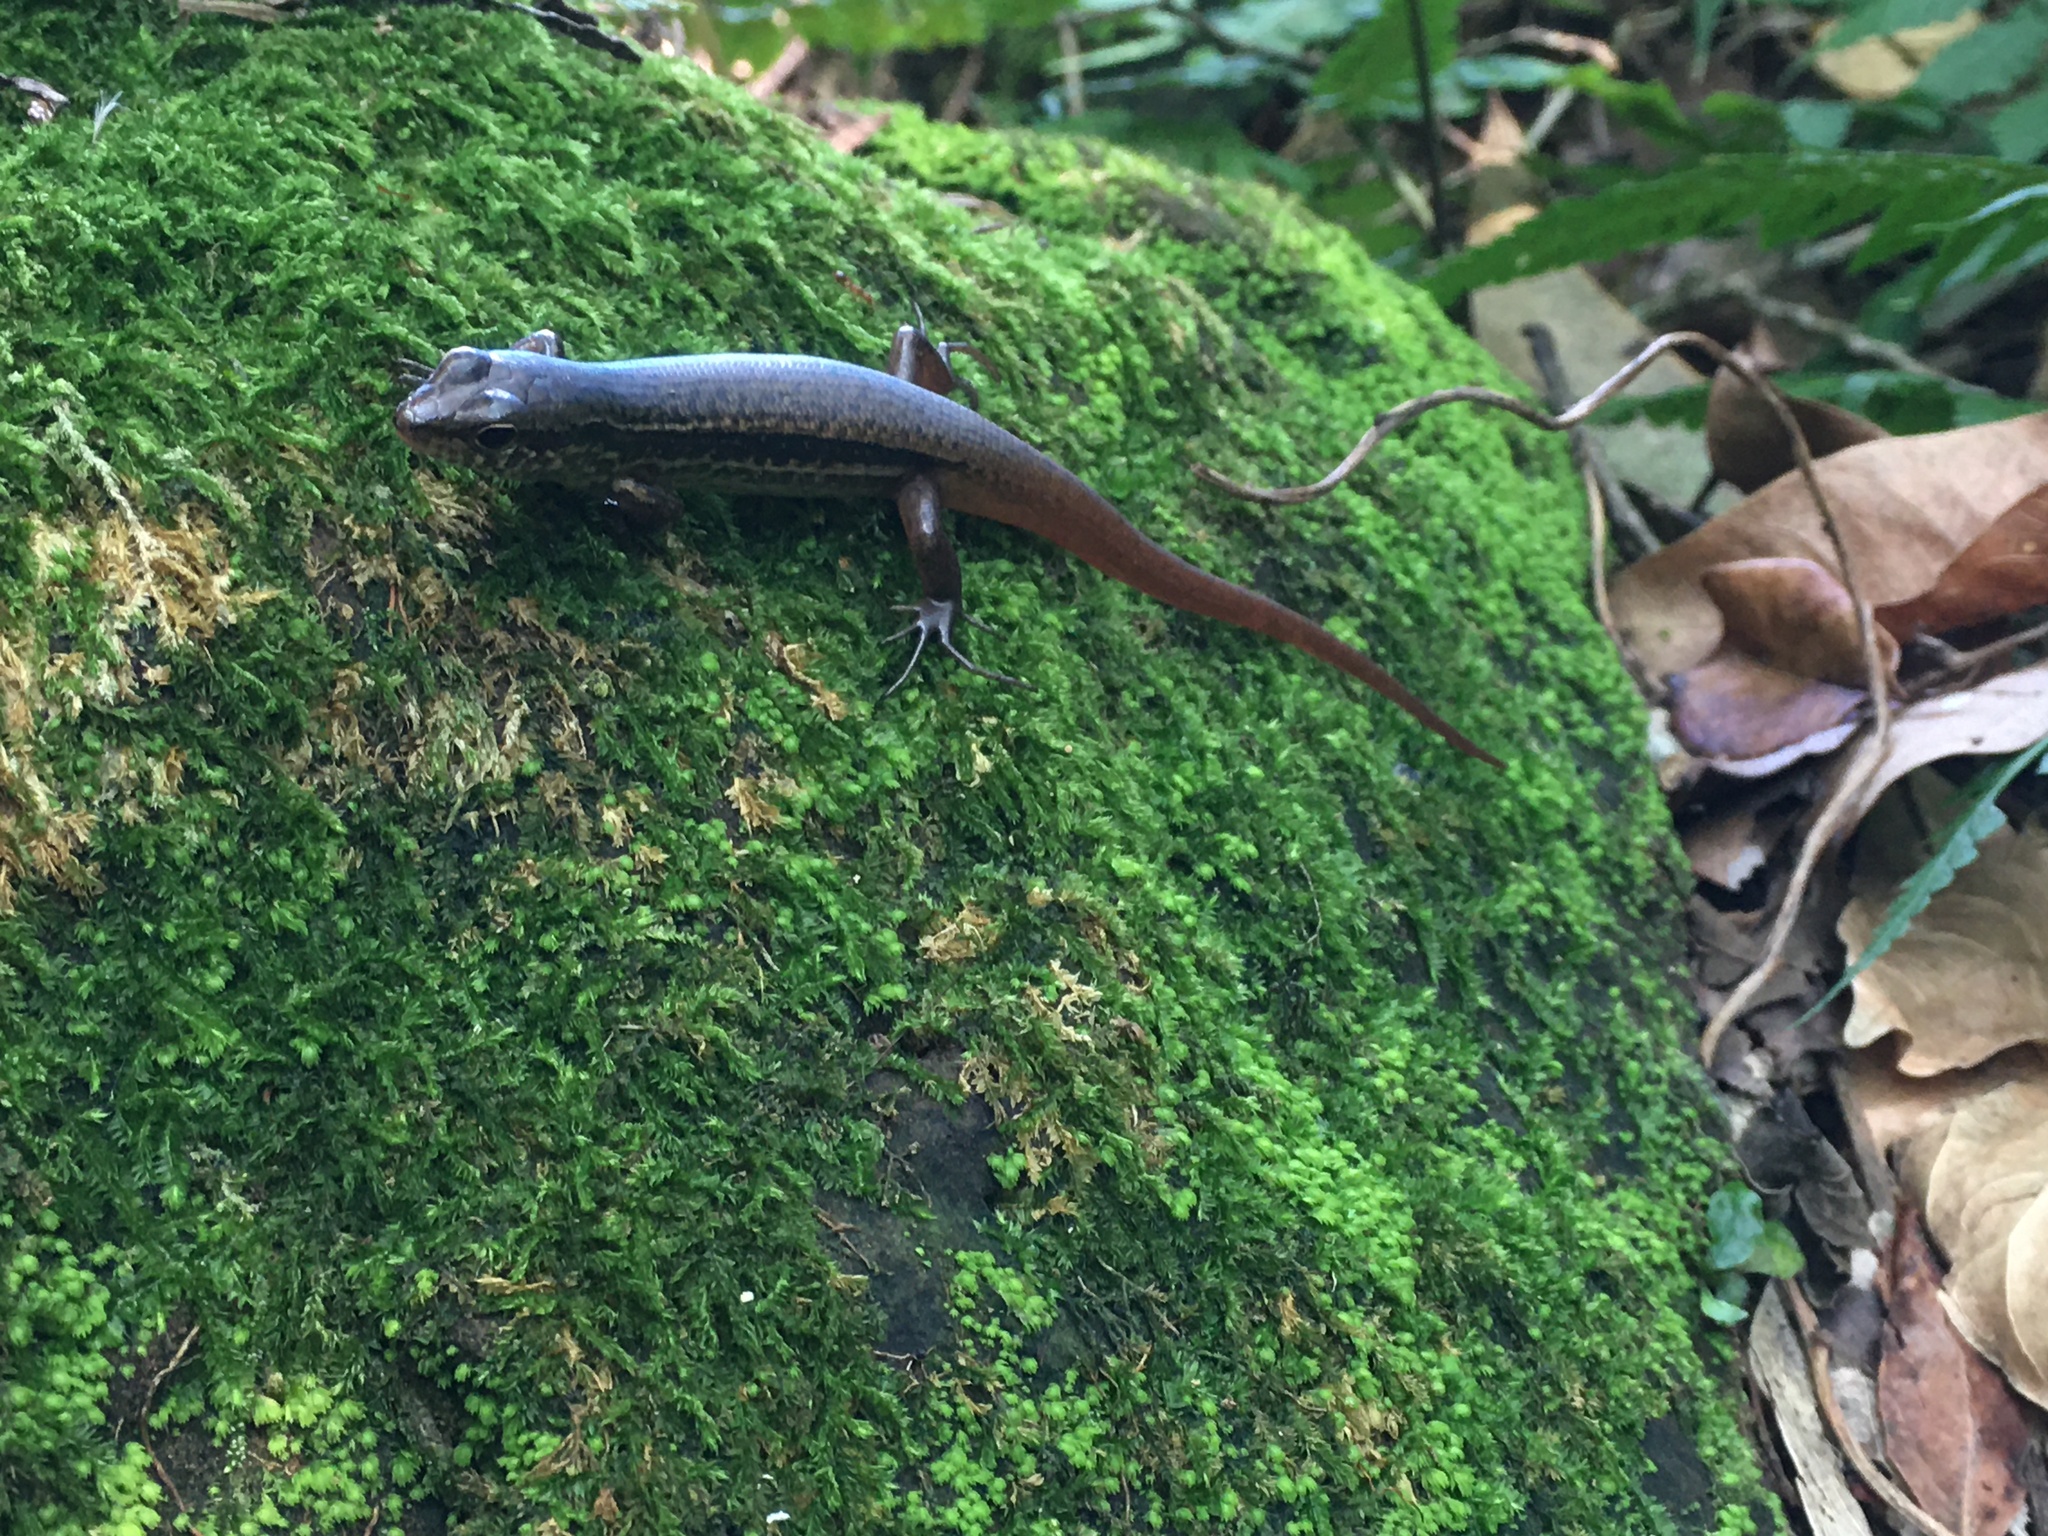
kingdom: Animalia
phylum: Chordata
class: Squamata
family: Scincidae
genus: Sphenomorphus
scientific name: Sphenomorphus indicus
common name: Himalayan forest skink
